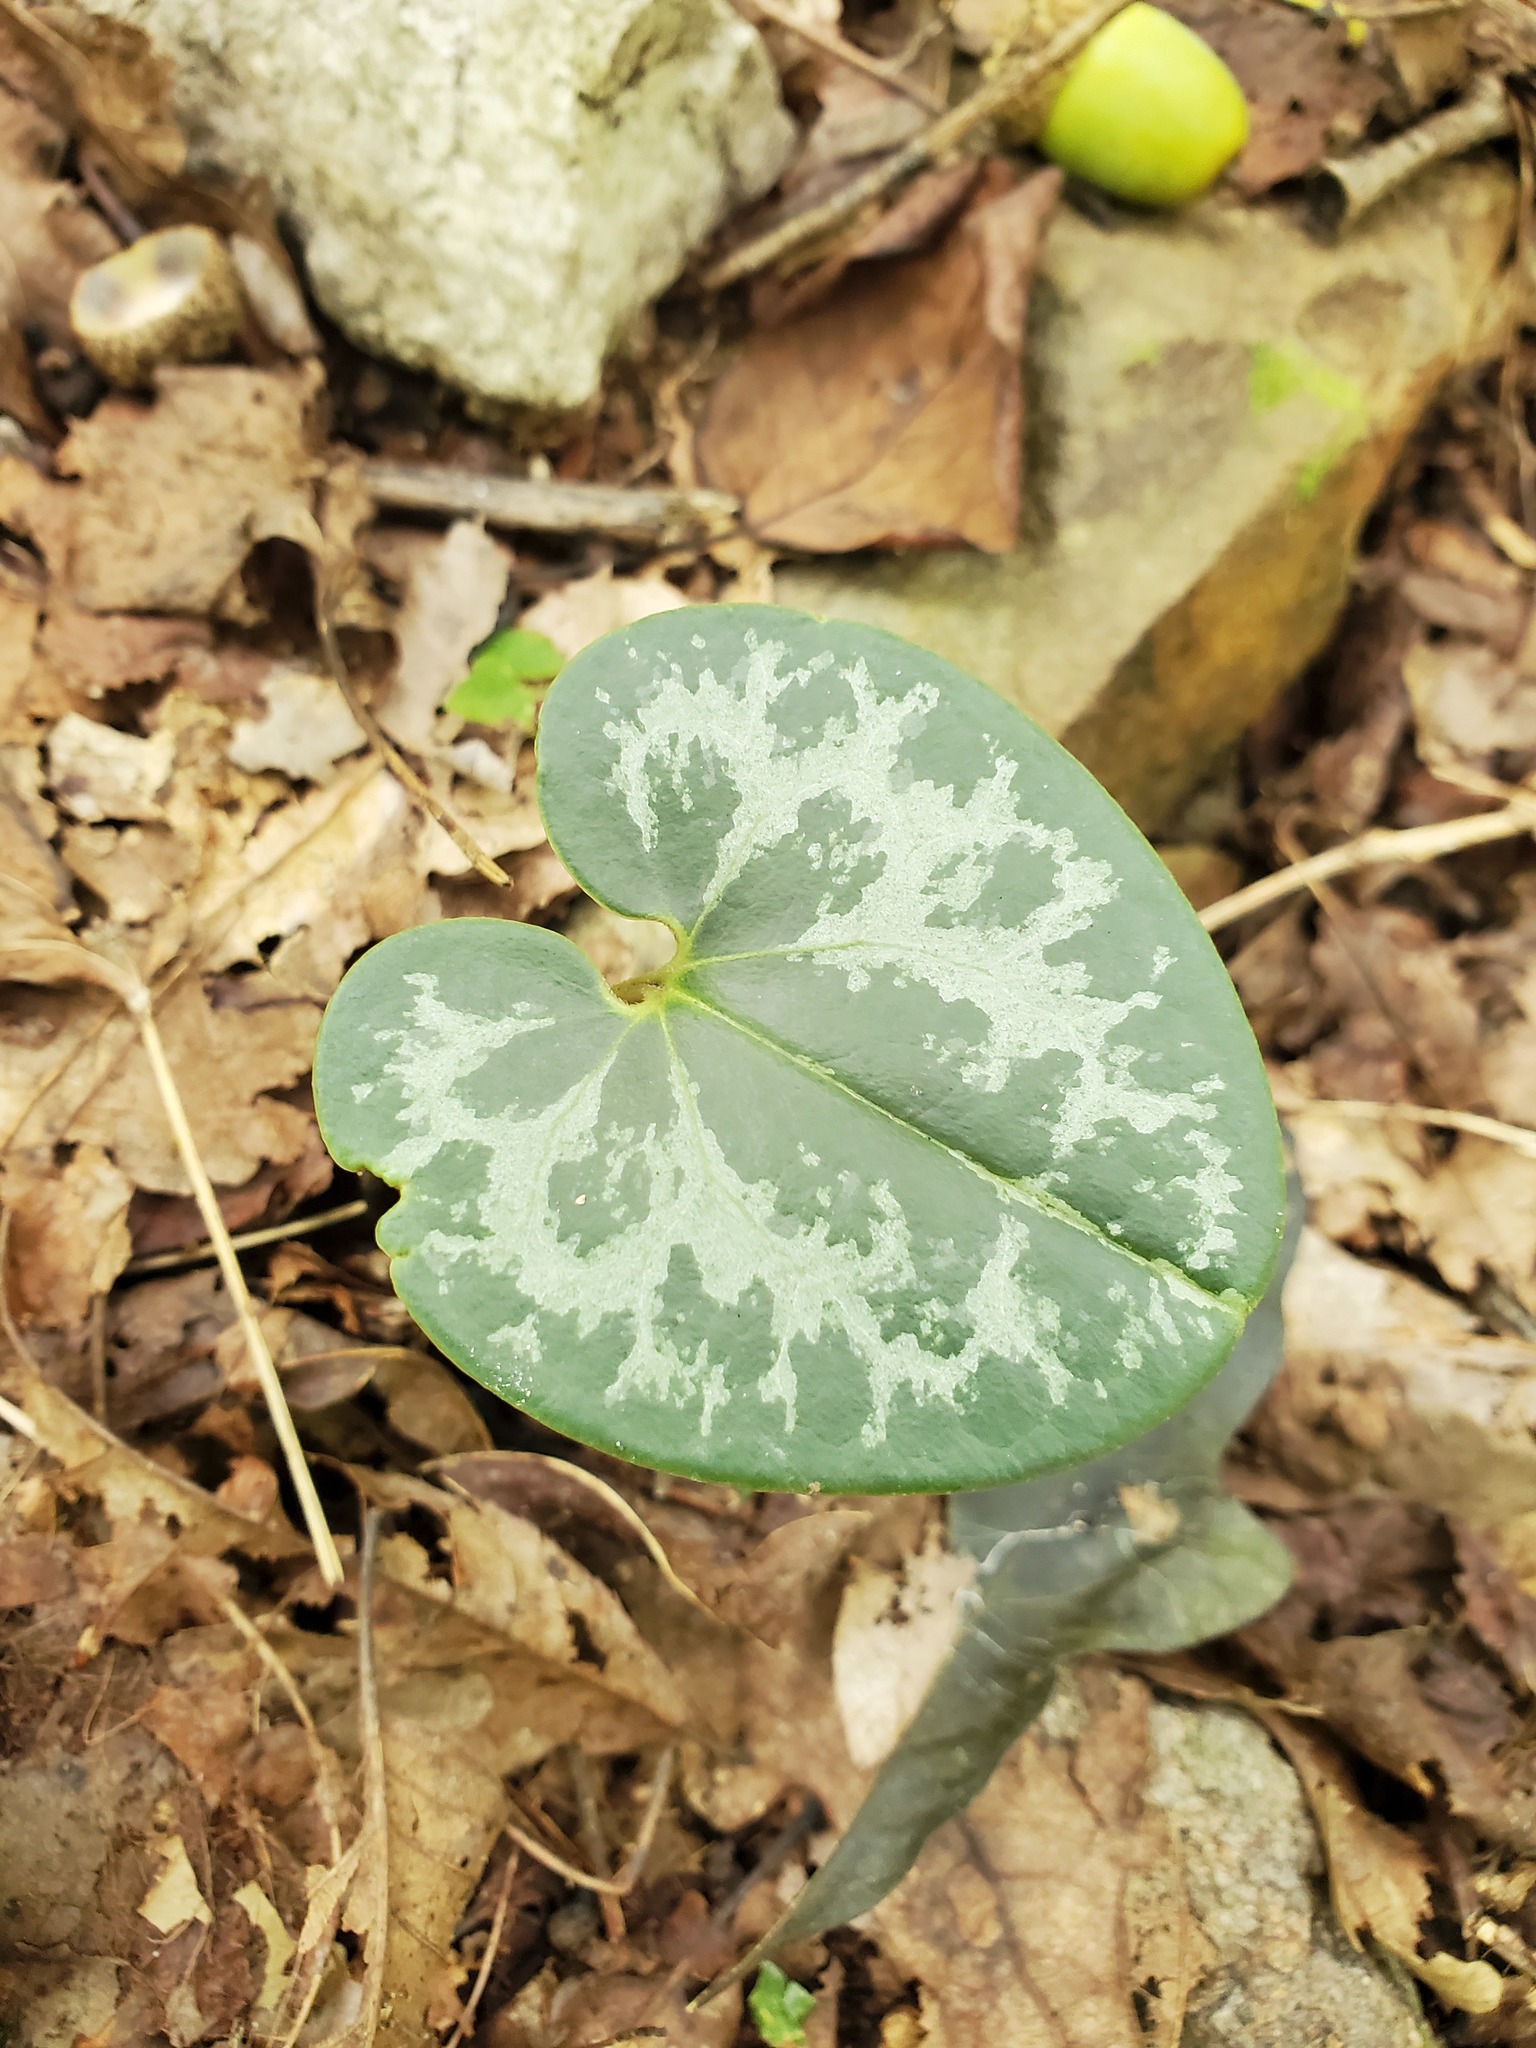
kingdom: Plantae
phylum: Tracheophyta
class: Magnoliopsida
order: Piperales
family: Aristolochiaceae
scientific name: Aristolochiaceae
